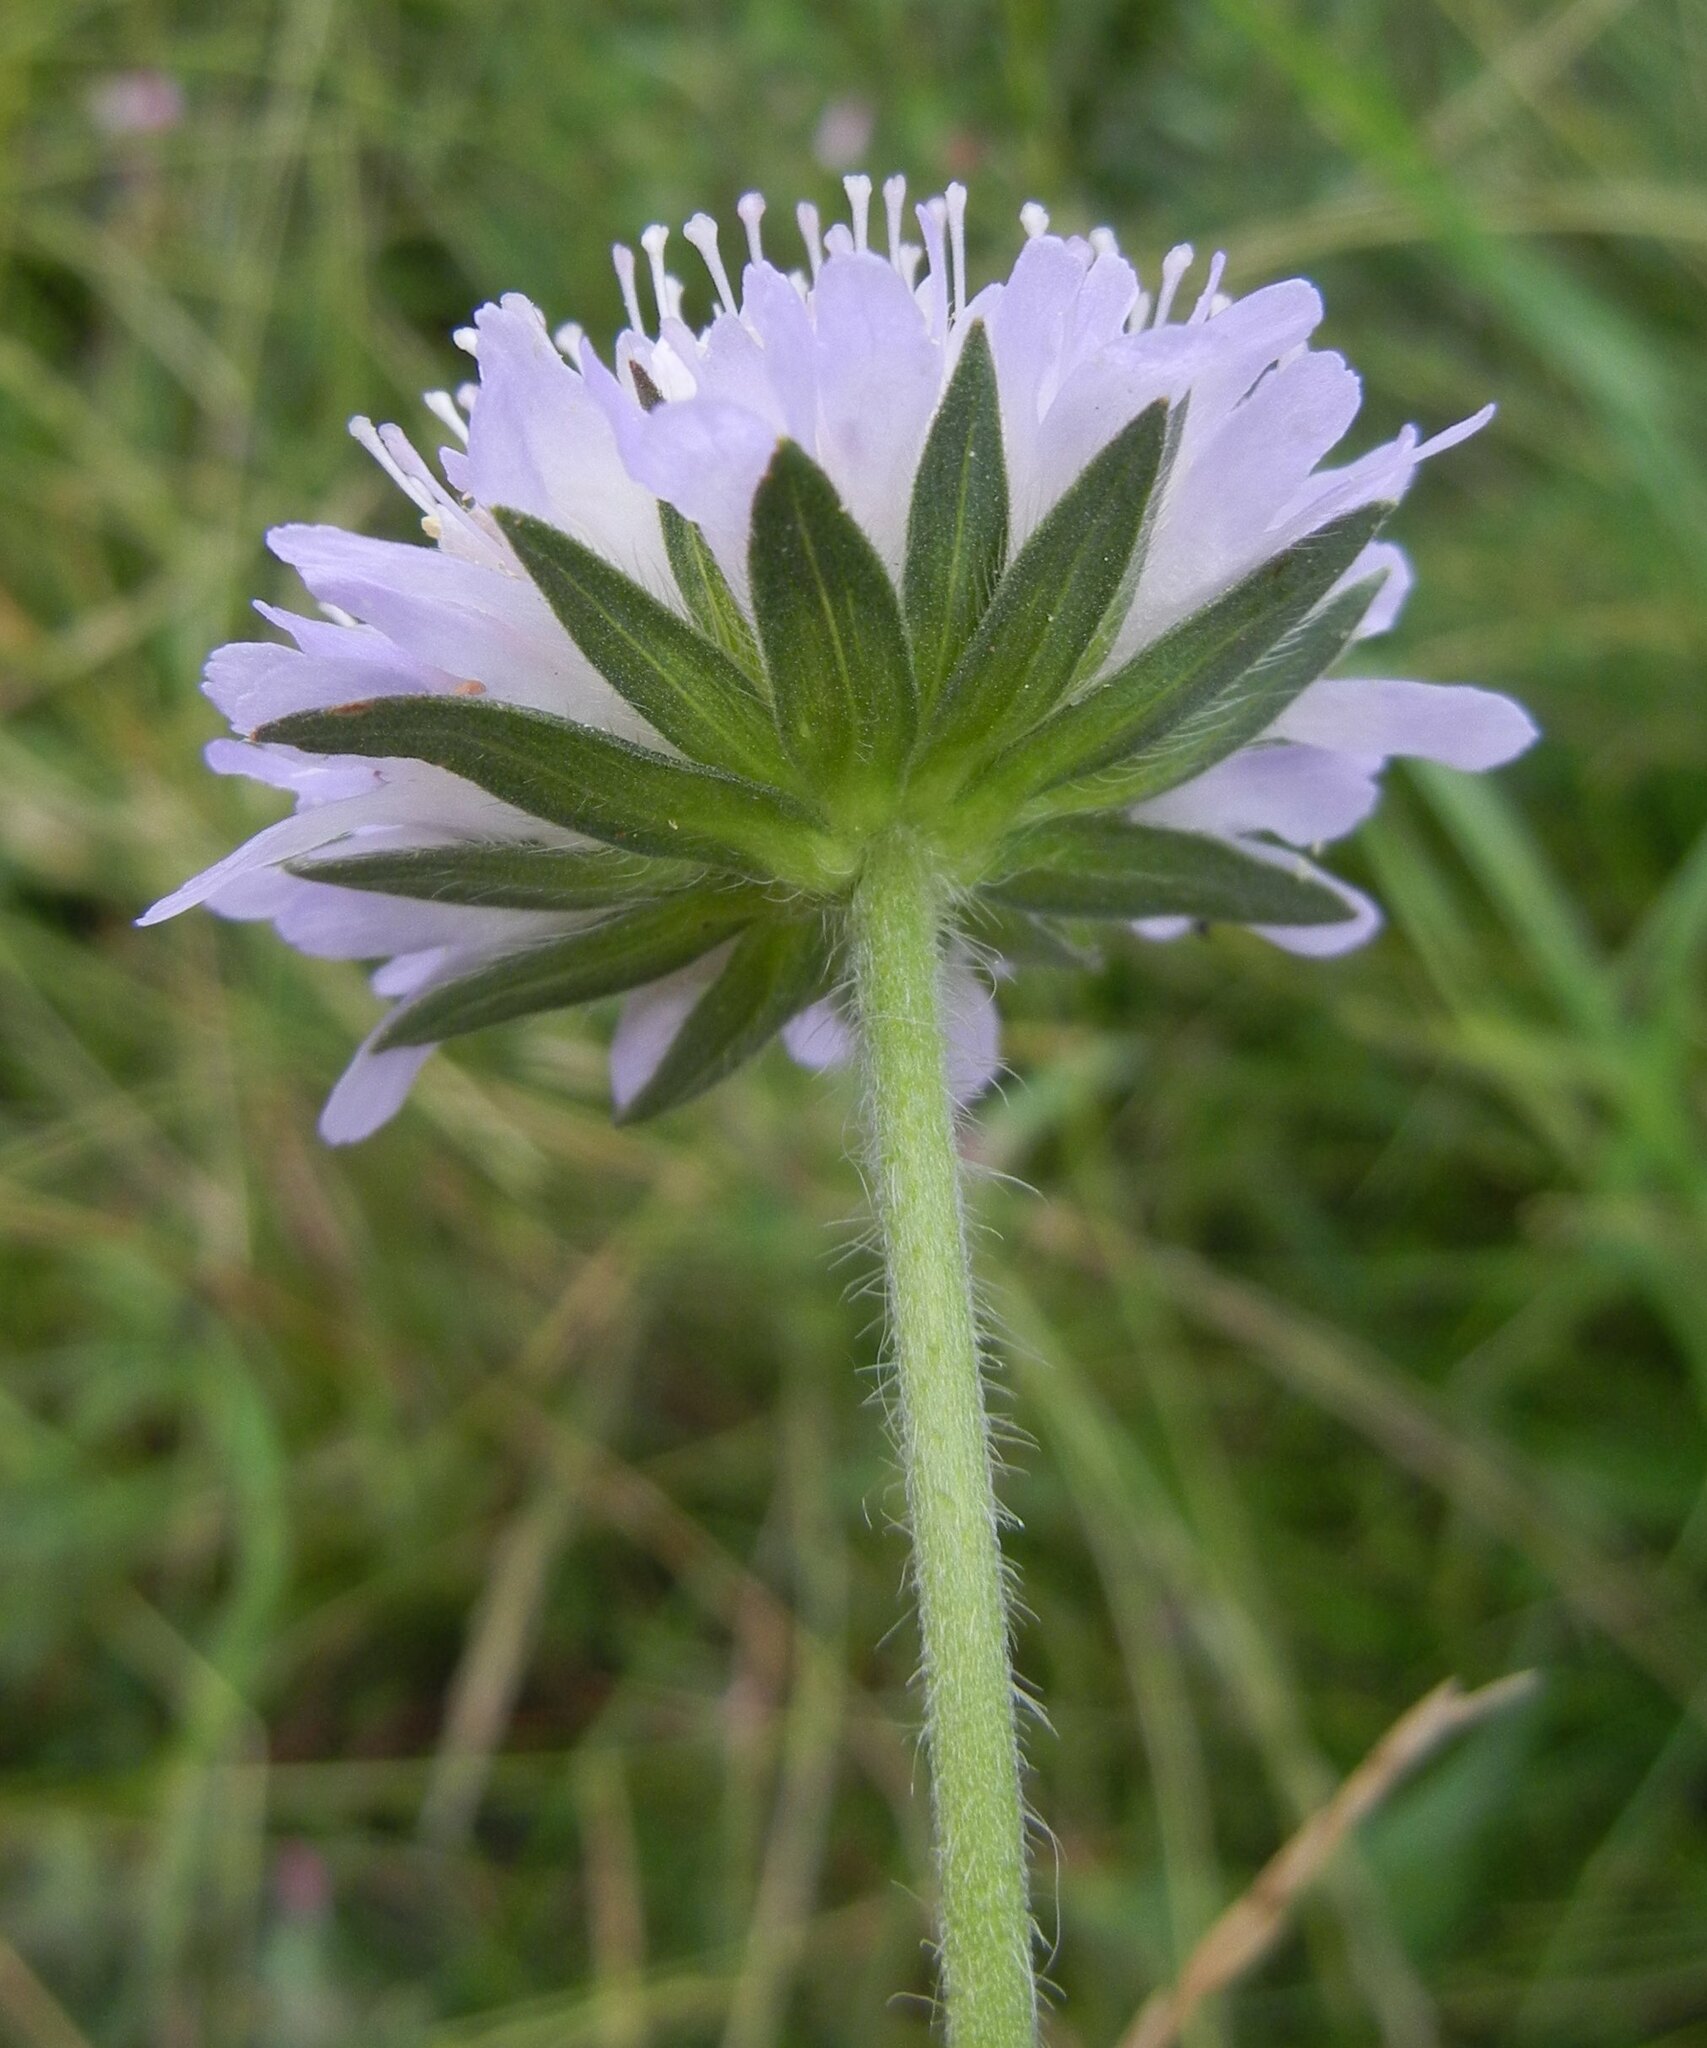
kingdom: Plantae
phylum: Tracheophyta
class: Magnoliopsida
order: Dipsacales
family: Caprifoliaceae
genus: Knautia
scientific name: Knautia arvensis
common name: Field scabiosa
